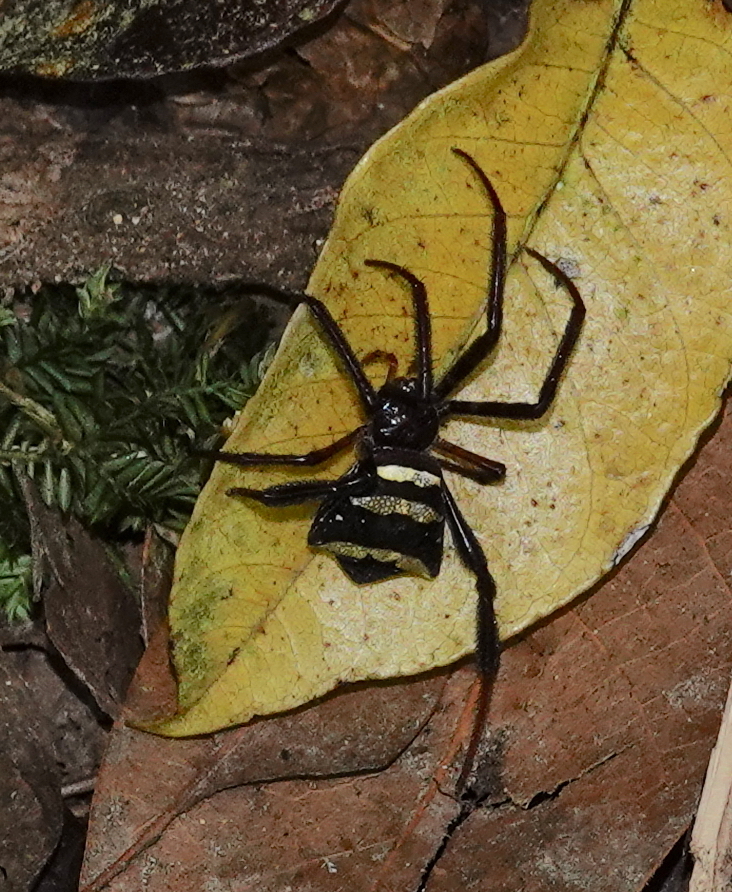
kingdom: Animalia
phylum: Arthropoda
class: Arachnida
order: Araneae
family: Araneidae
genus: Argiope
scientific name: Argiope reinwardti
